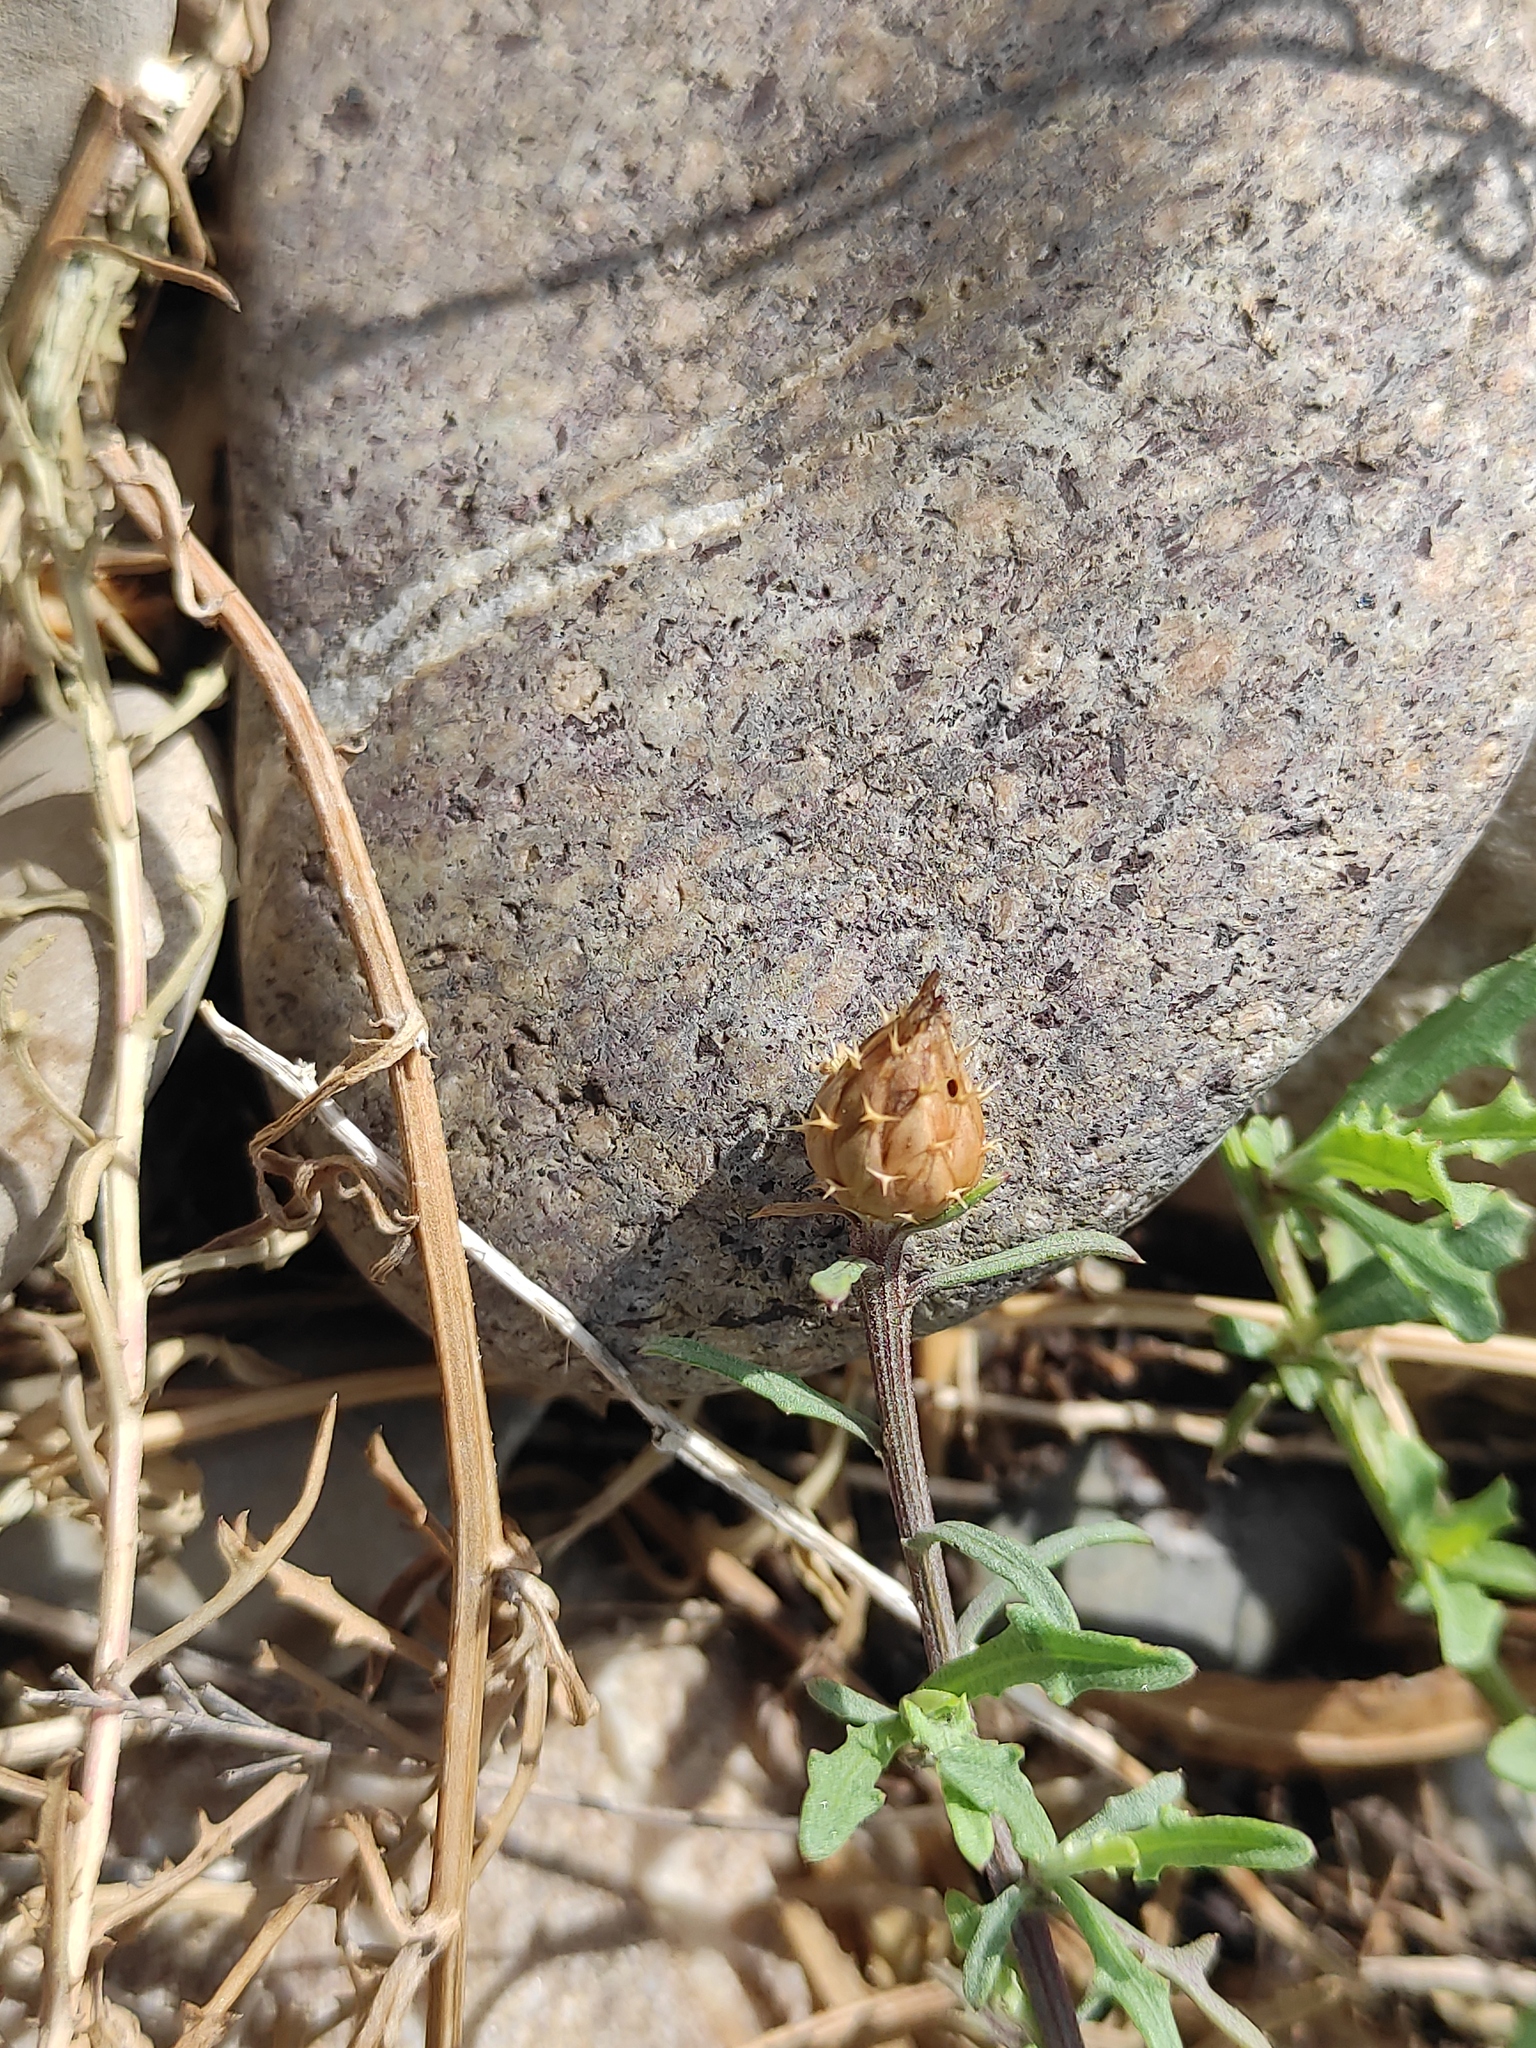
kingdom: Plantae
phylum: Tracheophyta
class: Magnoliopsida
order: Asterales
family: Asteraceae
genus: Centaurea
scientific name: Centaurea aspera
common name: Rough star-thistle
